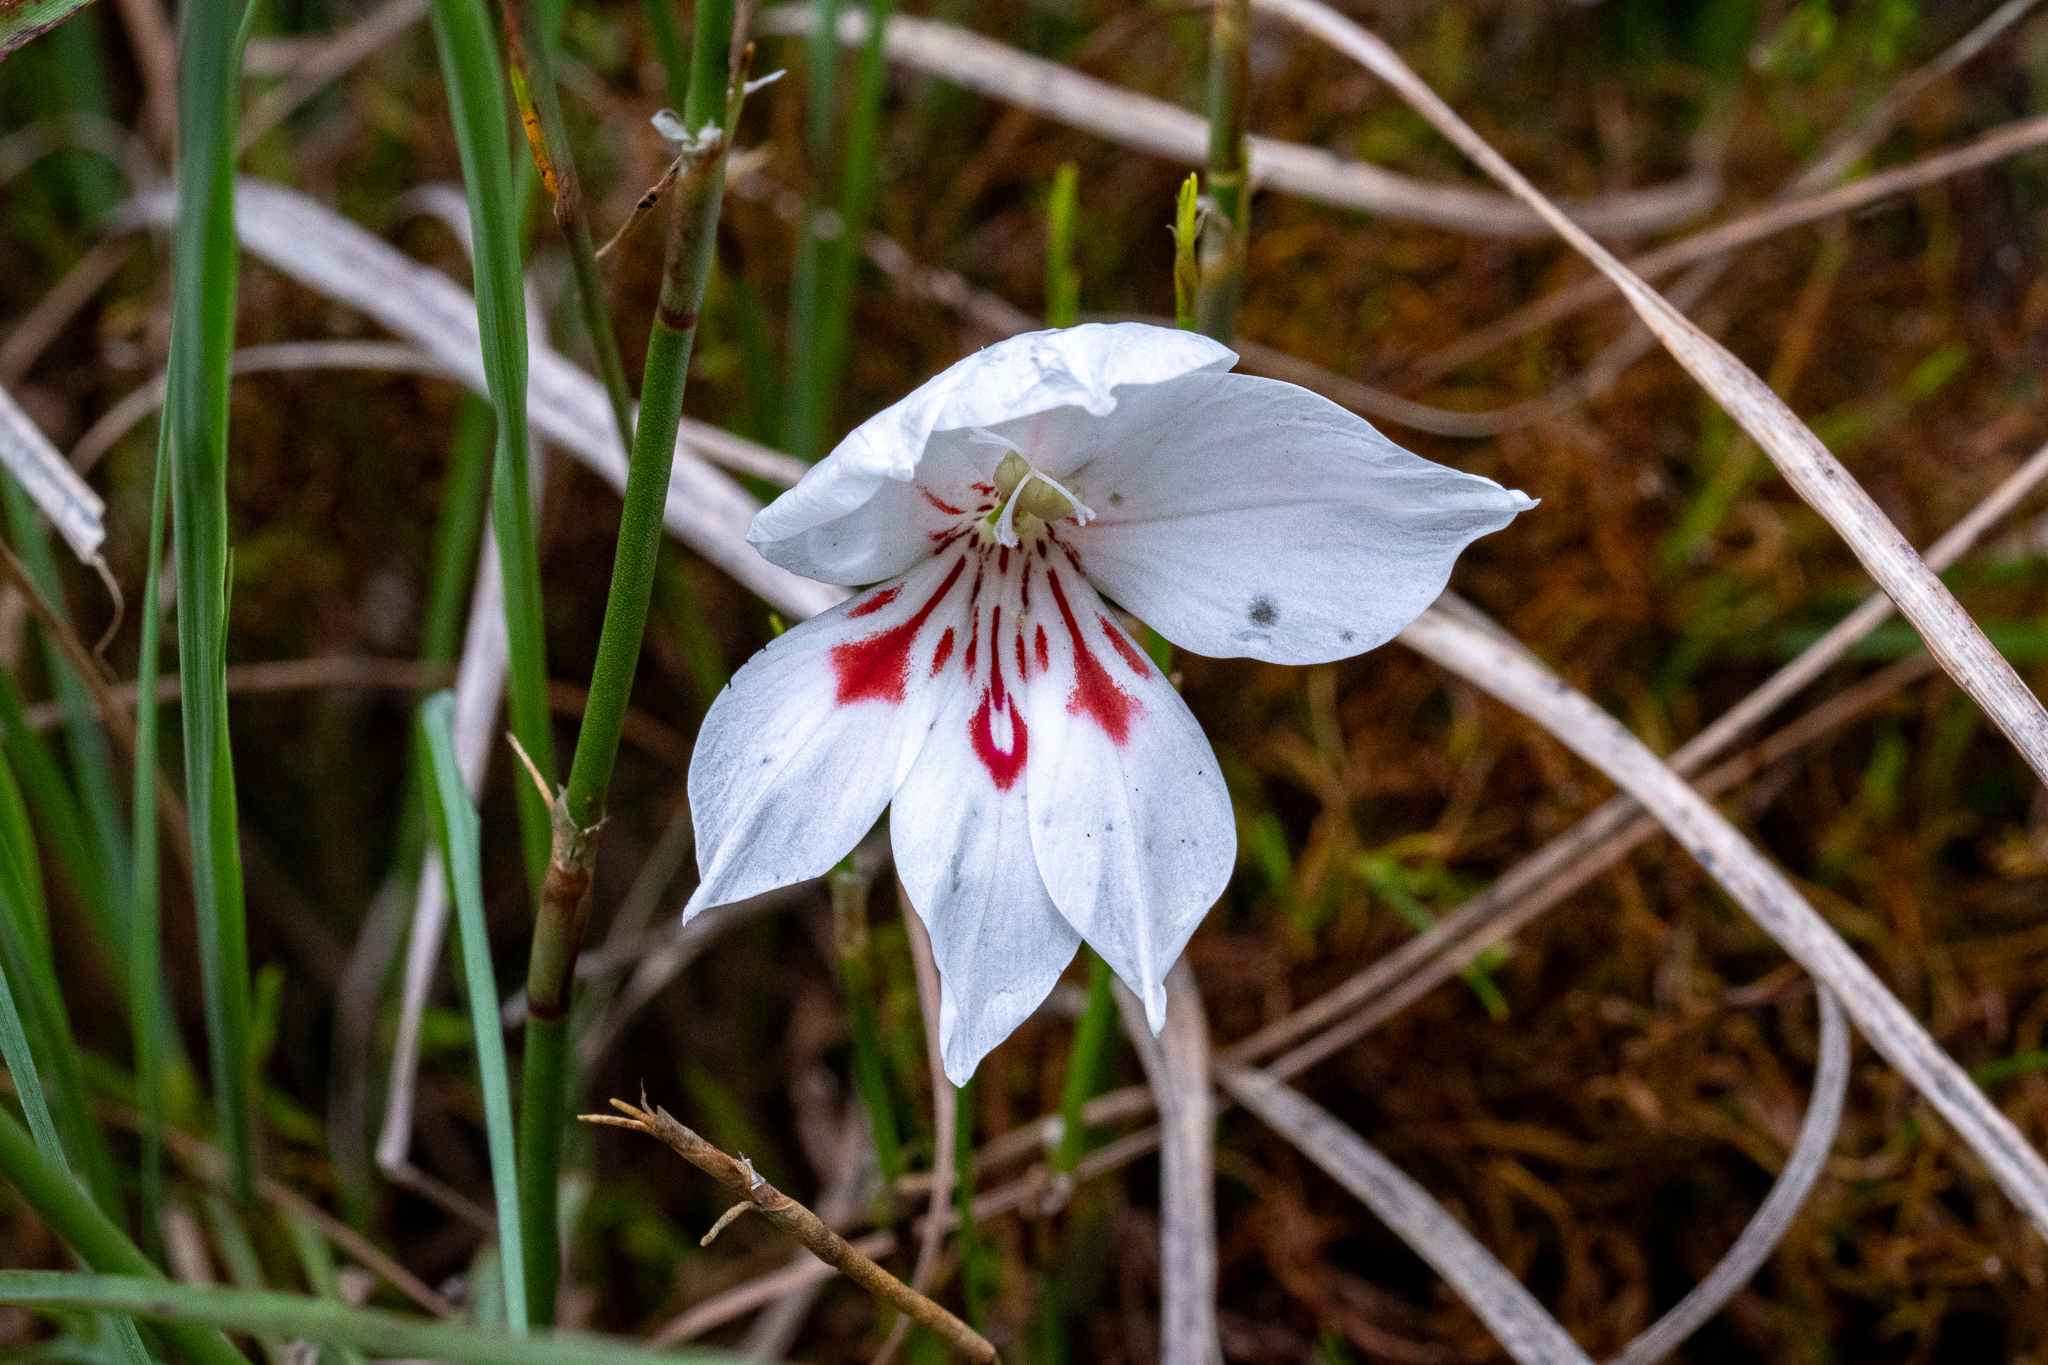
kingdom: Plantae
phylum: Tracheophyta
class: Liliopsida
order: Asparagales
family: Iridaceae
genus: Gladiolus
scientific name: Gladiolus debilis
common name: Painted-lady
